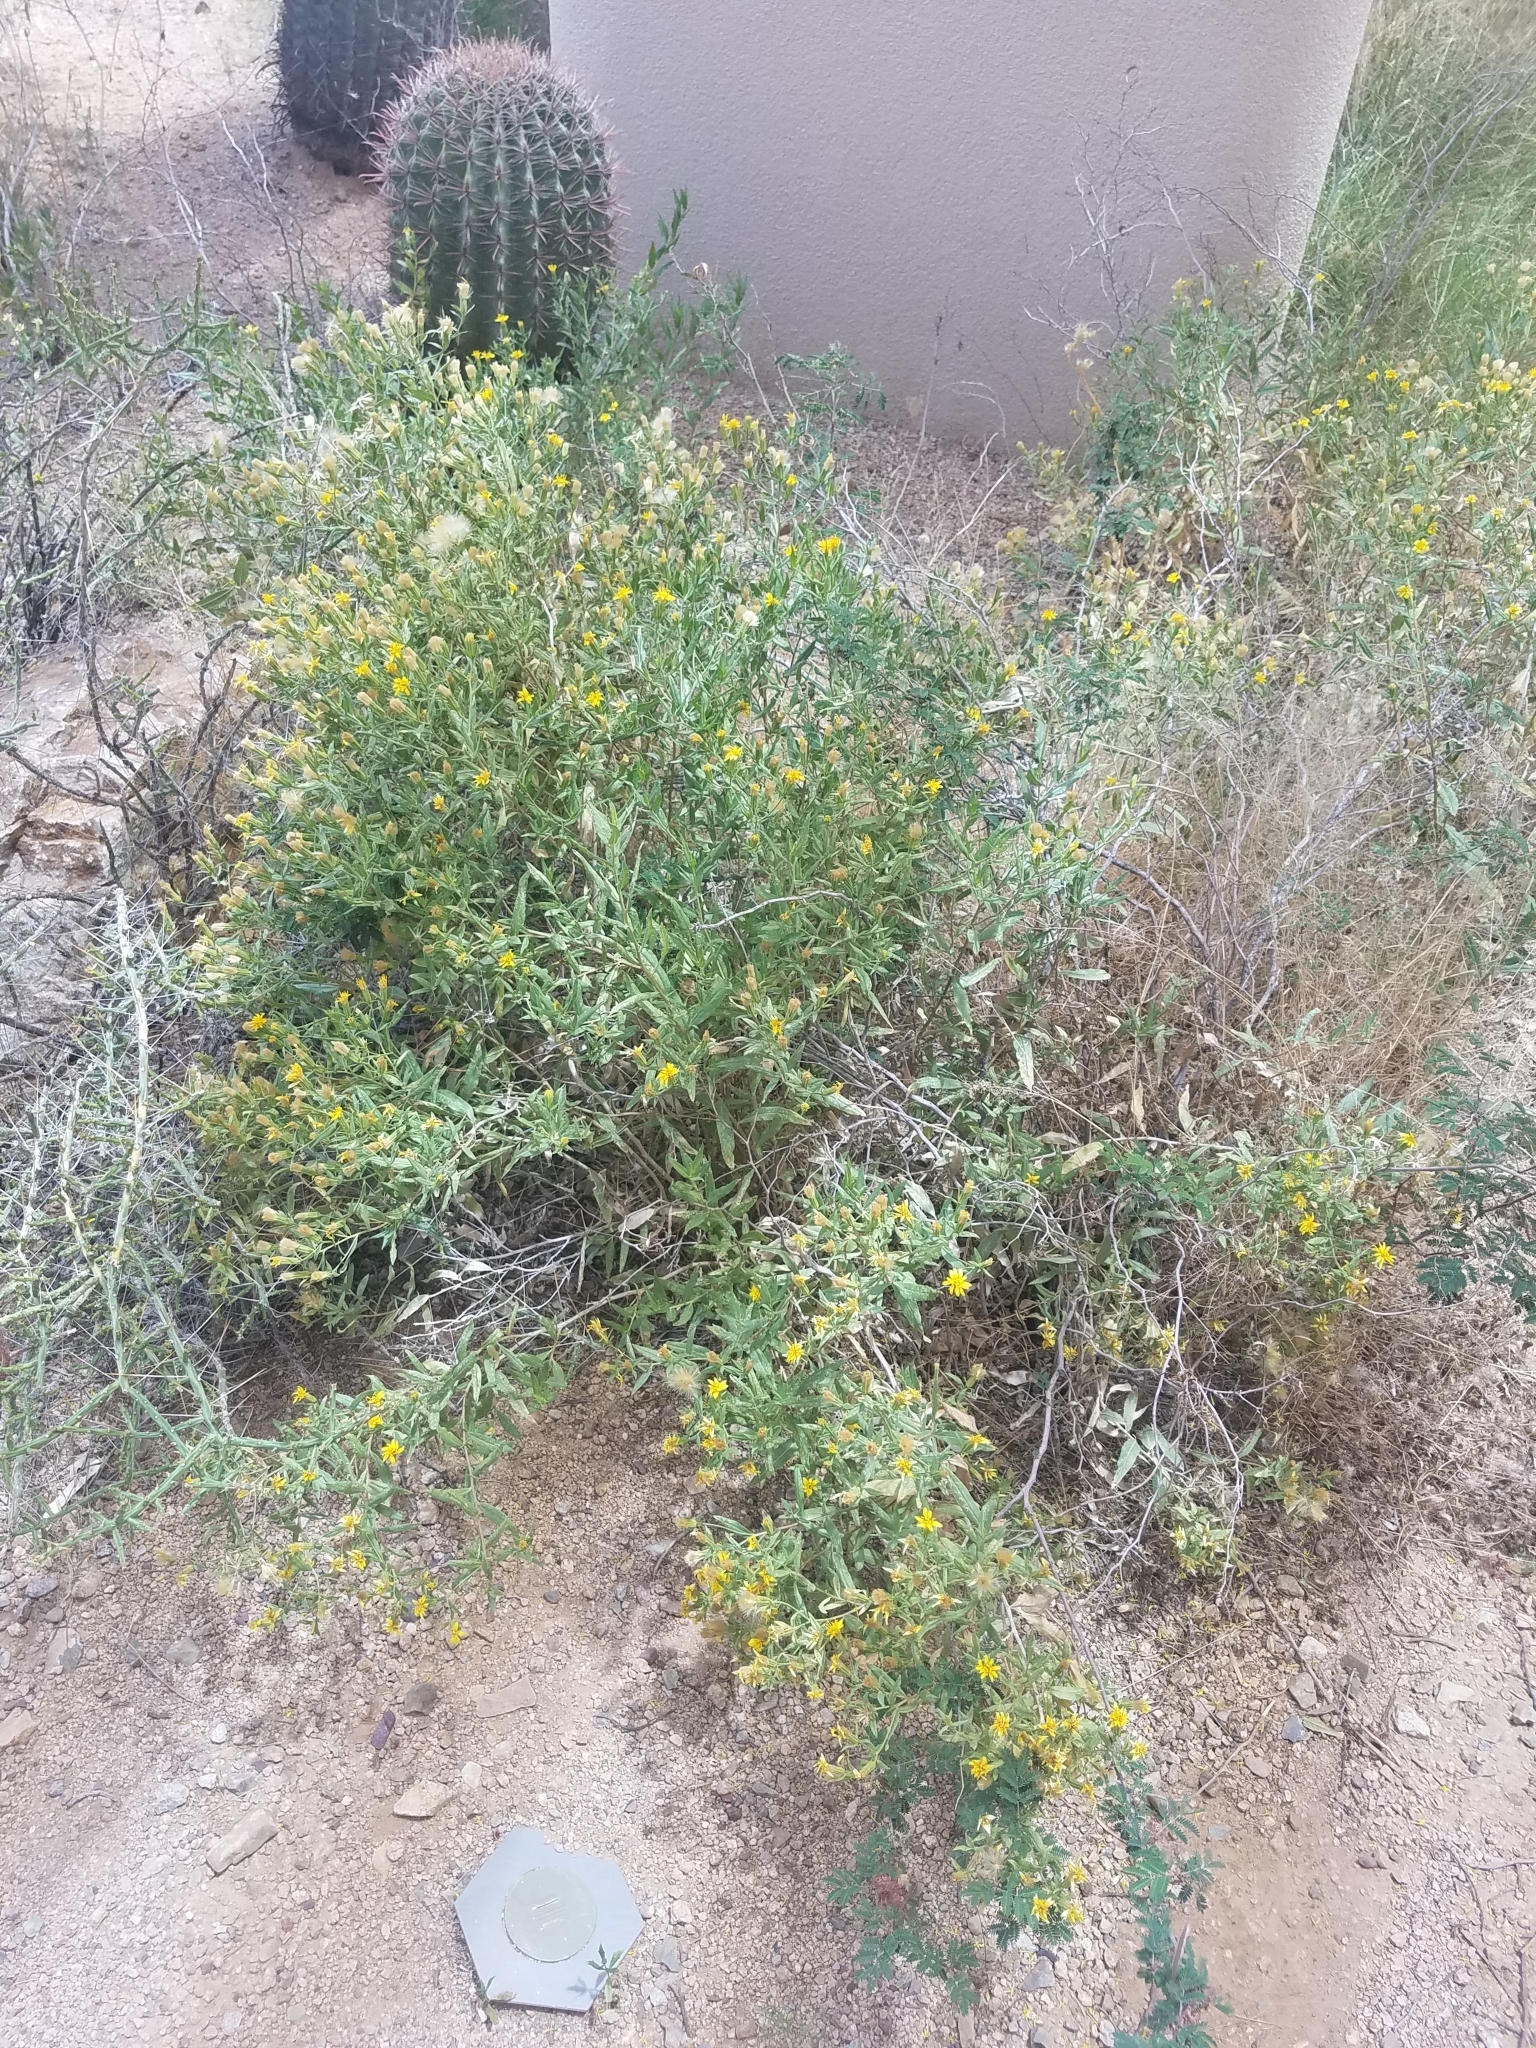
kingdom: Plantae
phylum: Tracheophyta
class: Magnoliopsida
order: Asterales
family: Asteraceae
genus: Trixis
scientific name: Trixis californica
